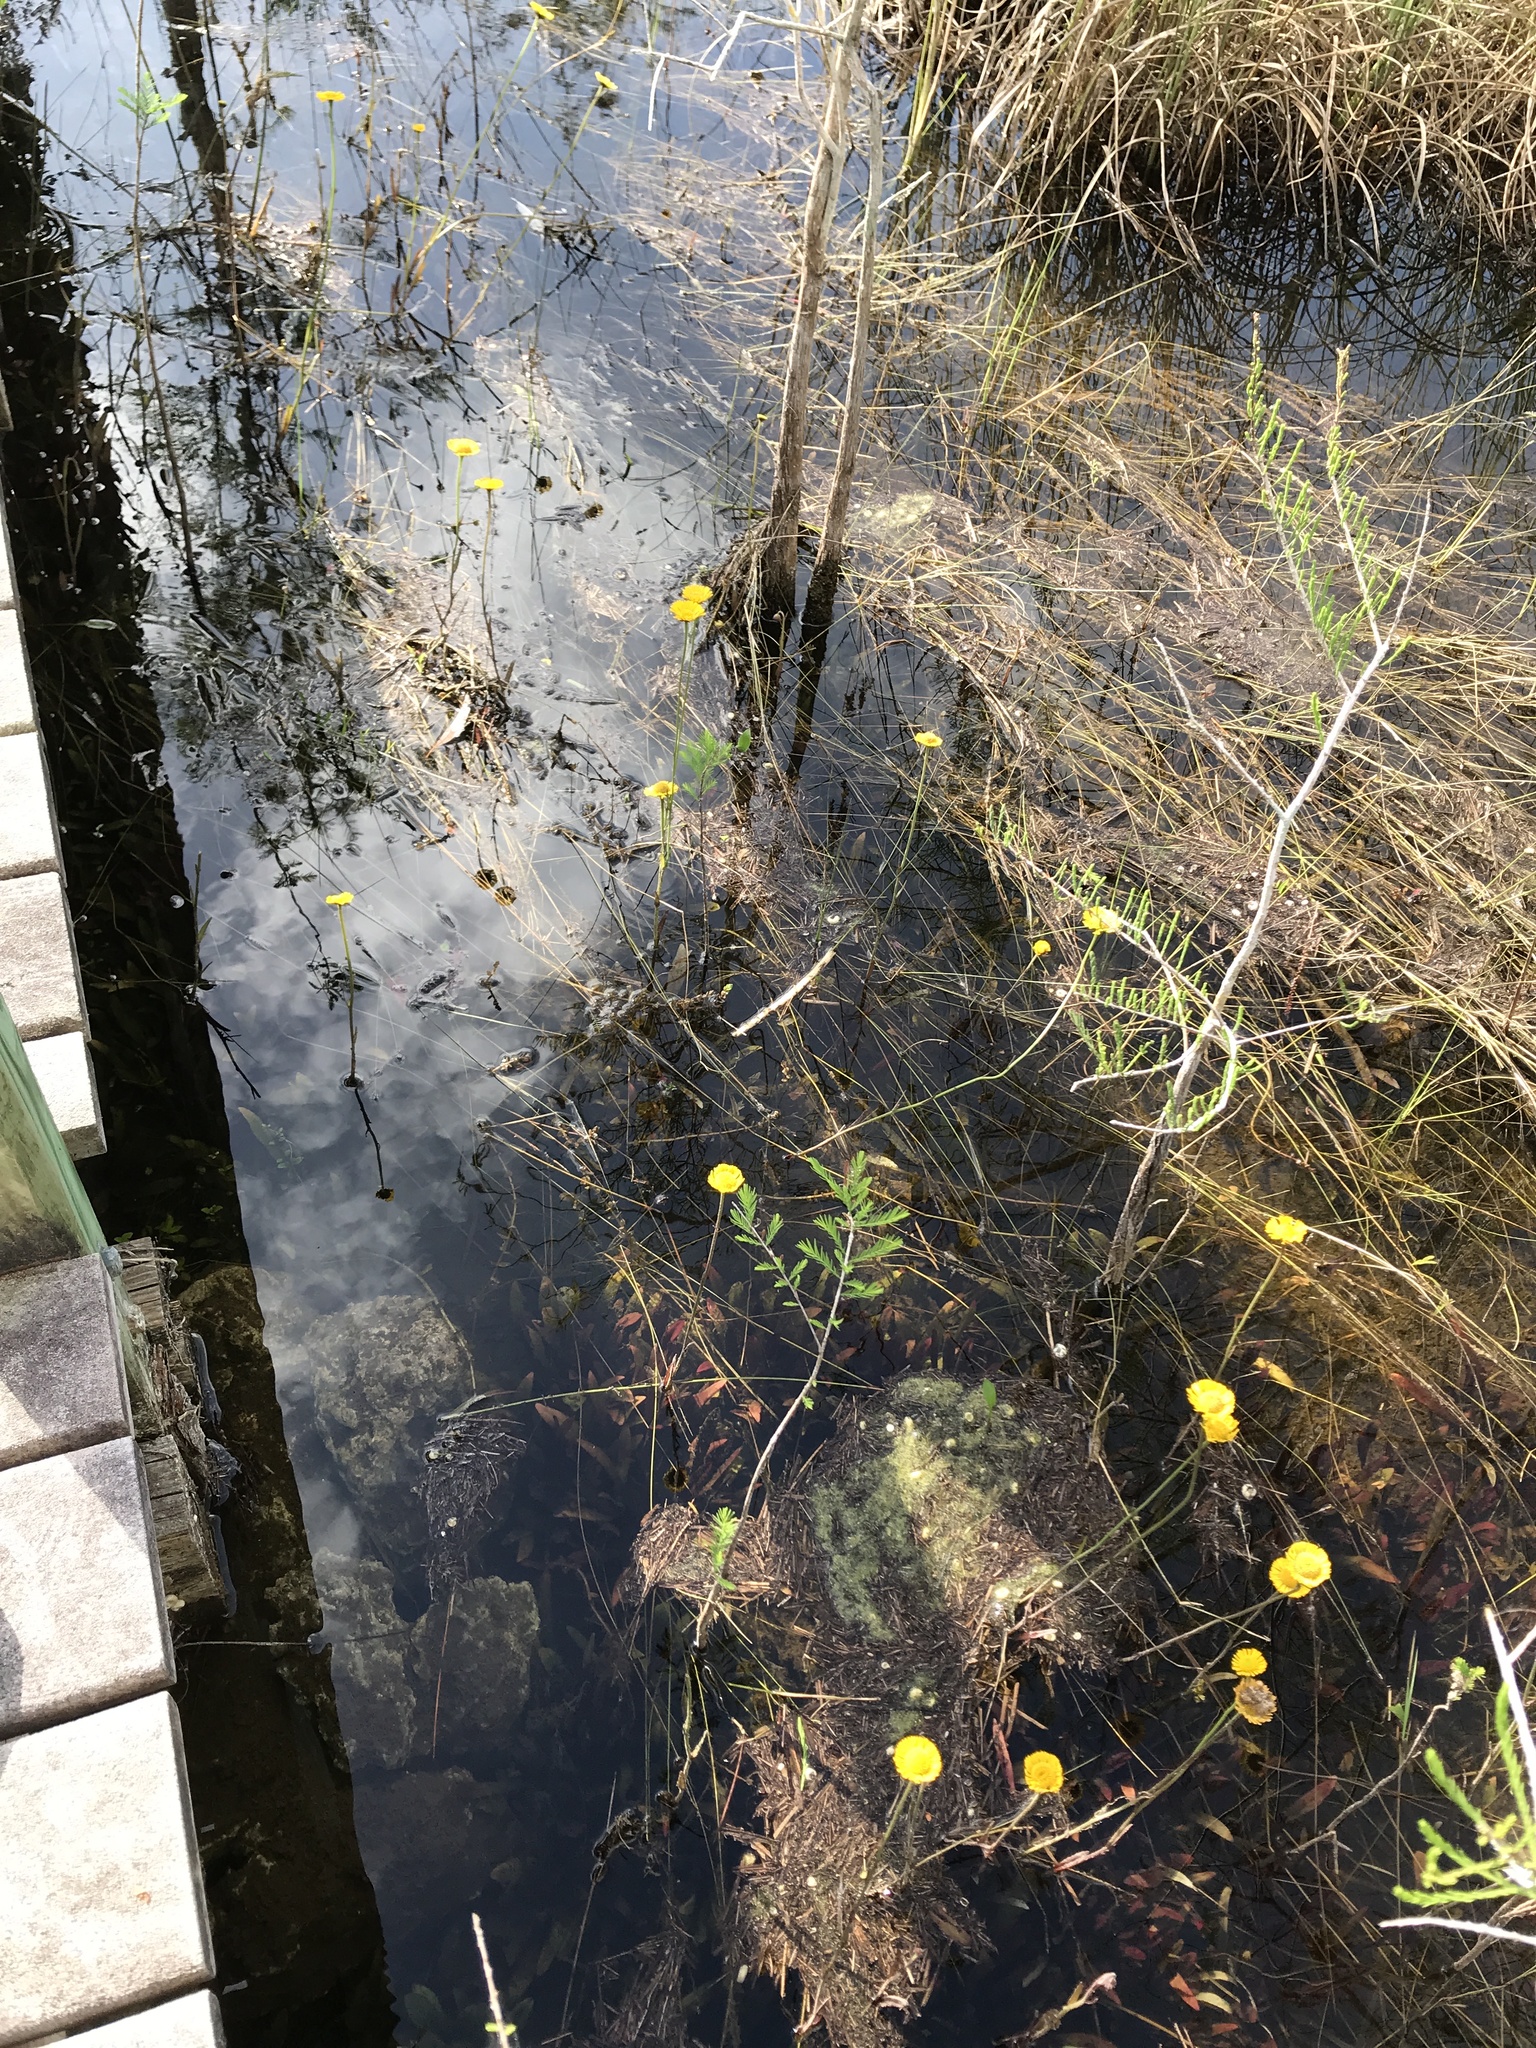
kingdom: Plantae
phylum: Tracheophyta
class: Magnoliopsida
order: Asterales
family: Asteraceae
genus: Helenium
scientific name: Helenium pinnatifidum
